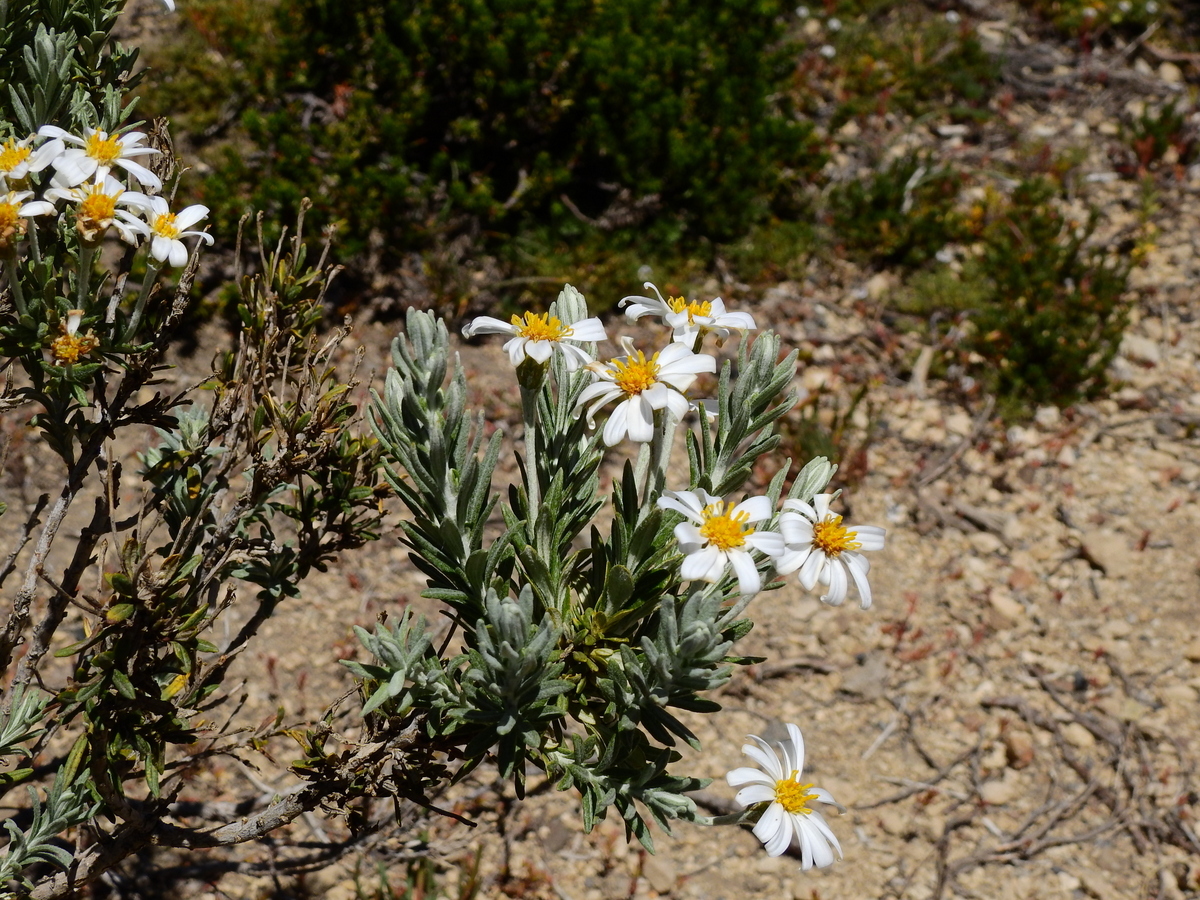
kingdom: Plantae
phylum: Tracheophyta
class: Magnoliopsida
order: Asterales
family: Asteraceae
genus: Chiliotrichum
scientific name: Chiliotrichum diffusum
